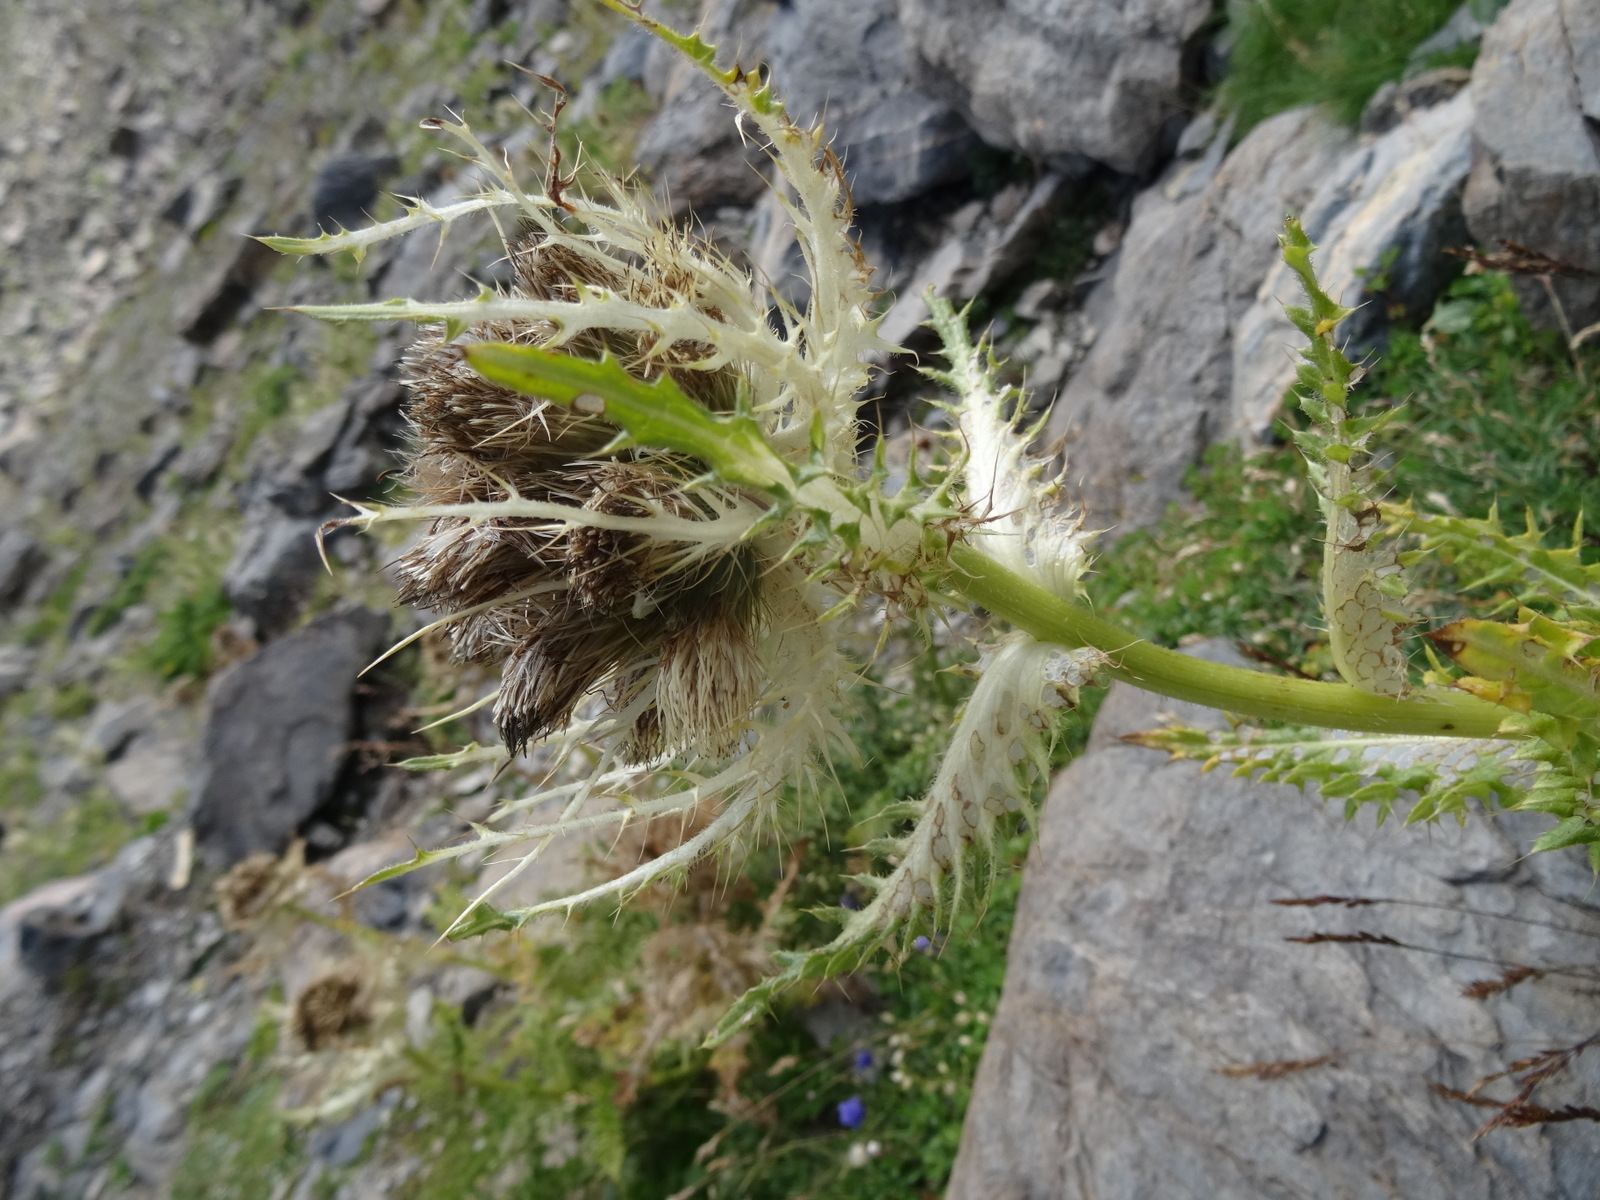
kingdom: Plantae
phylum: Tracheophyta
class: Magnoliopsida
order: Asterales
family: Asteraceae
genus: Cirsium
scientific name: Cirsium spinosissimum
